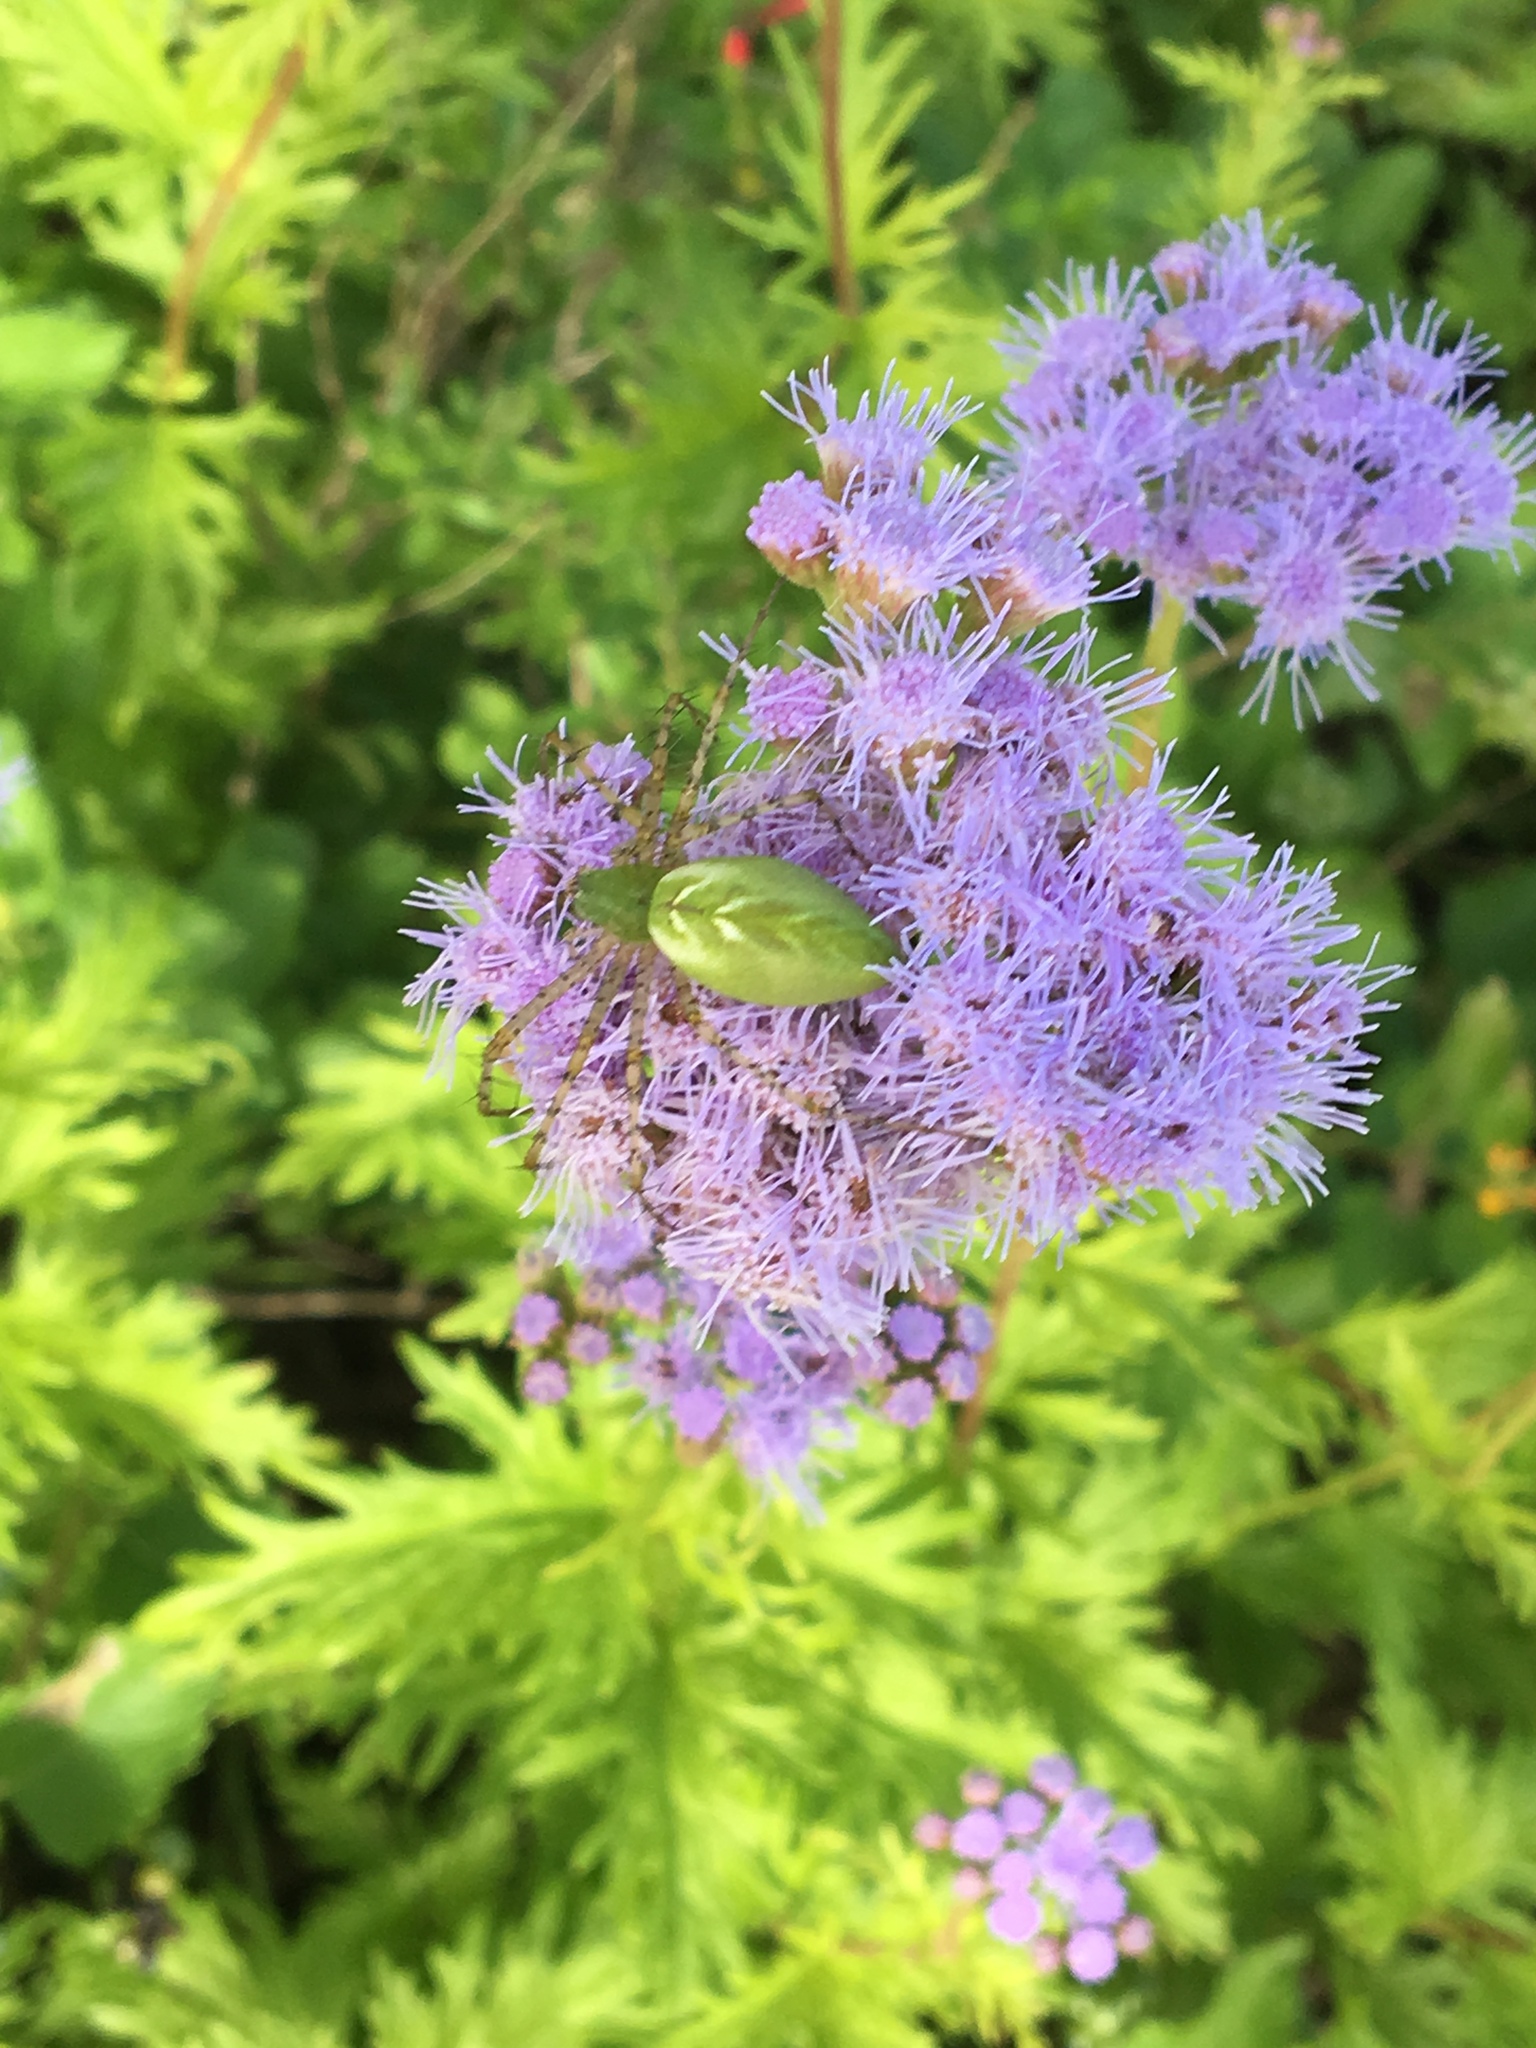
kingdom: Animalia
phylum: Arthropoda
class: Arachnida
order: Araneae
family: Oxyopidae
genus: Peucetia
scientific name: Peucetia viridans
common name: Lynx spiders
